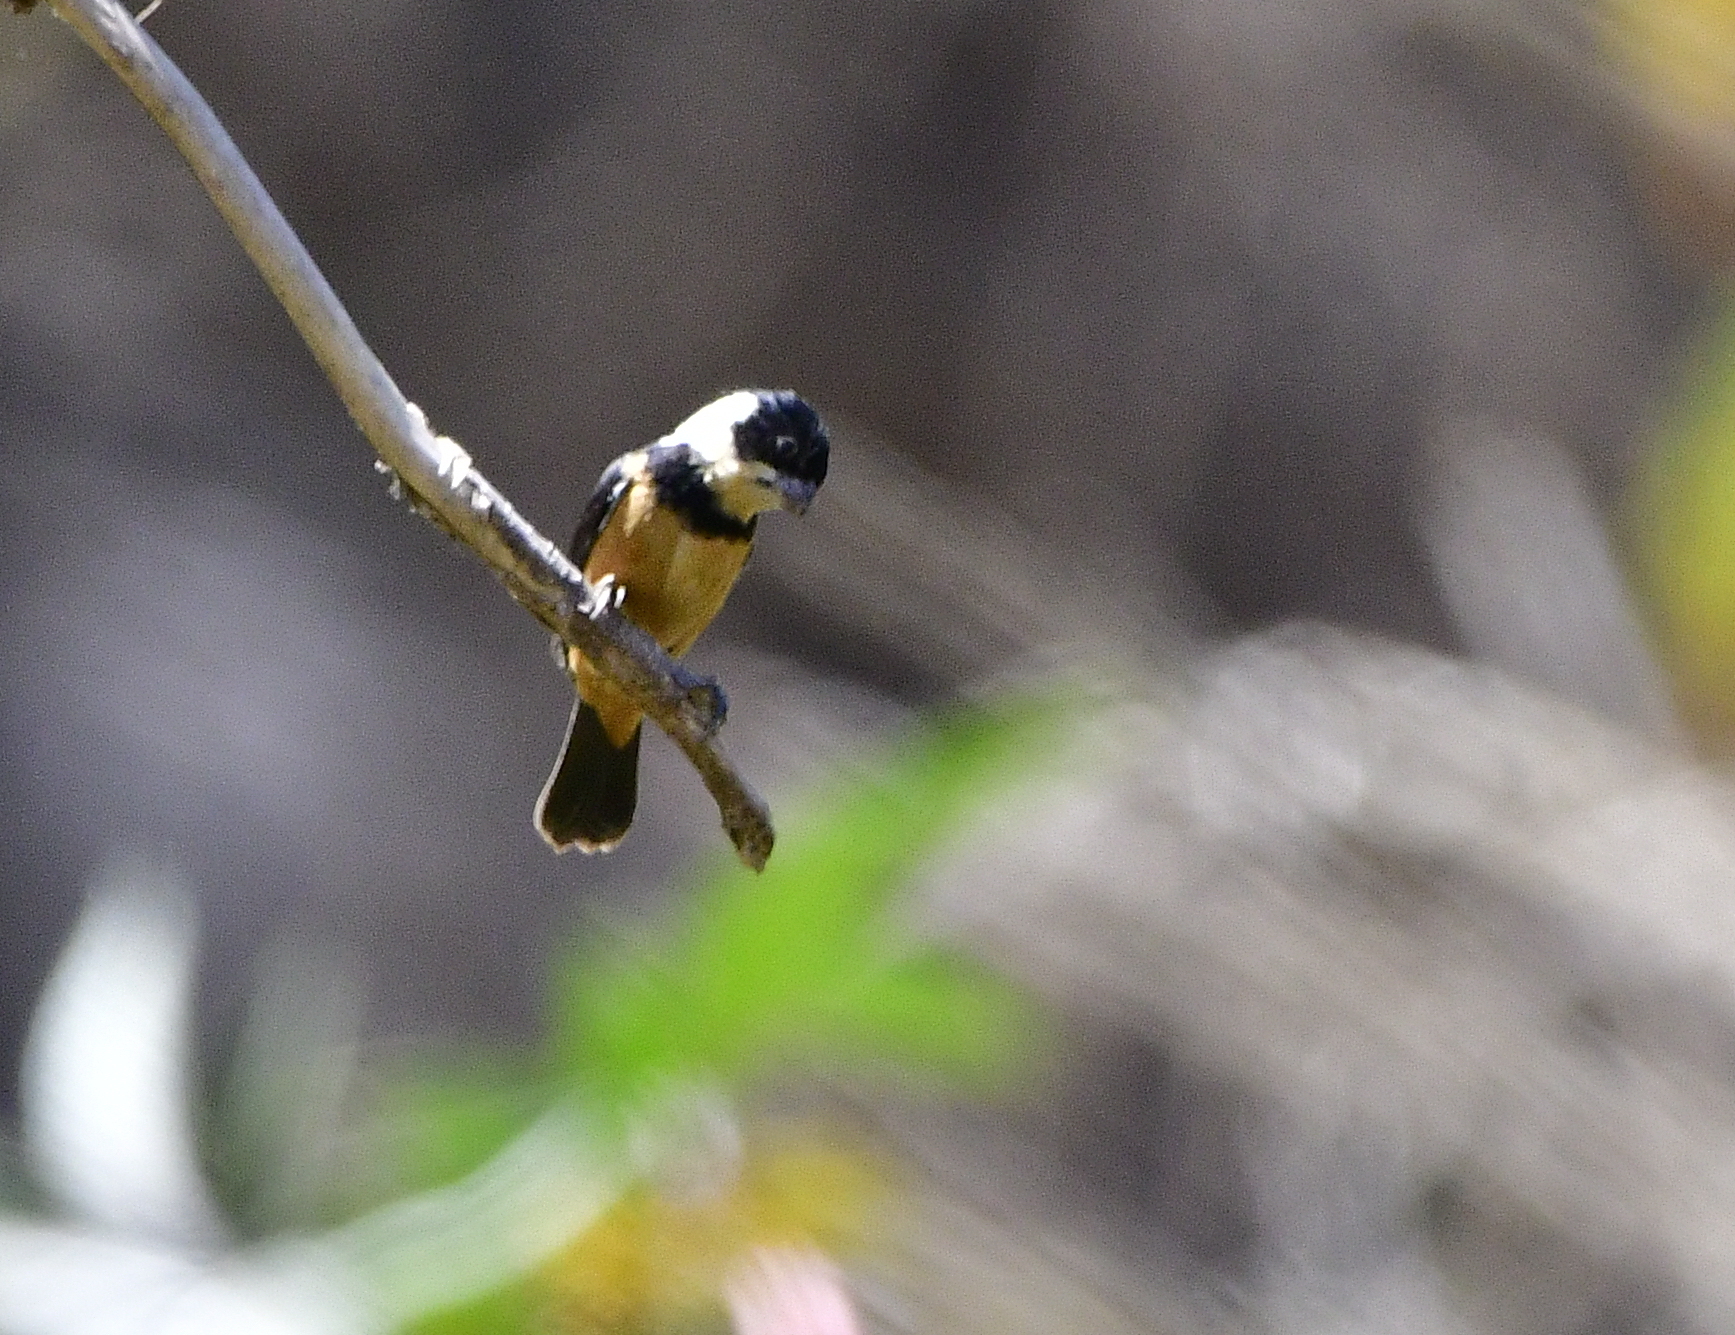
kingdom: Animalia
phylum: Chordata
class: Aves
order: Passeriformes
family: Thraupidae
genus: Sporophila
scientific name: Sporophila torqueola
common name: White-collared seedeater
